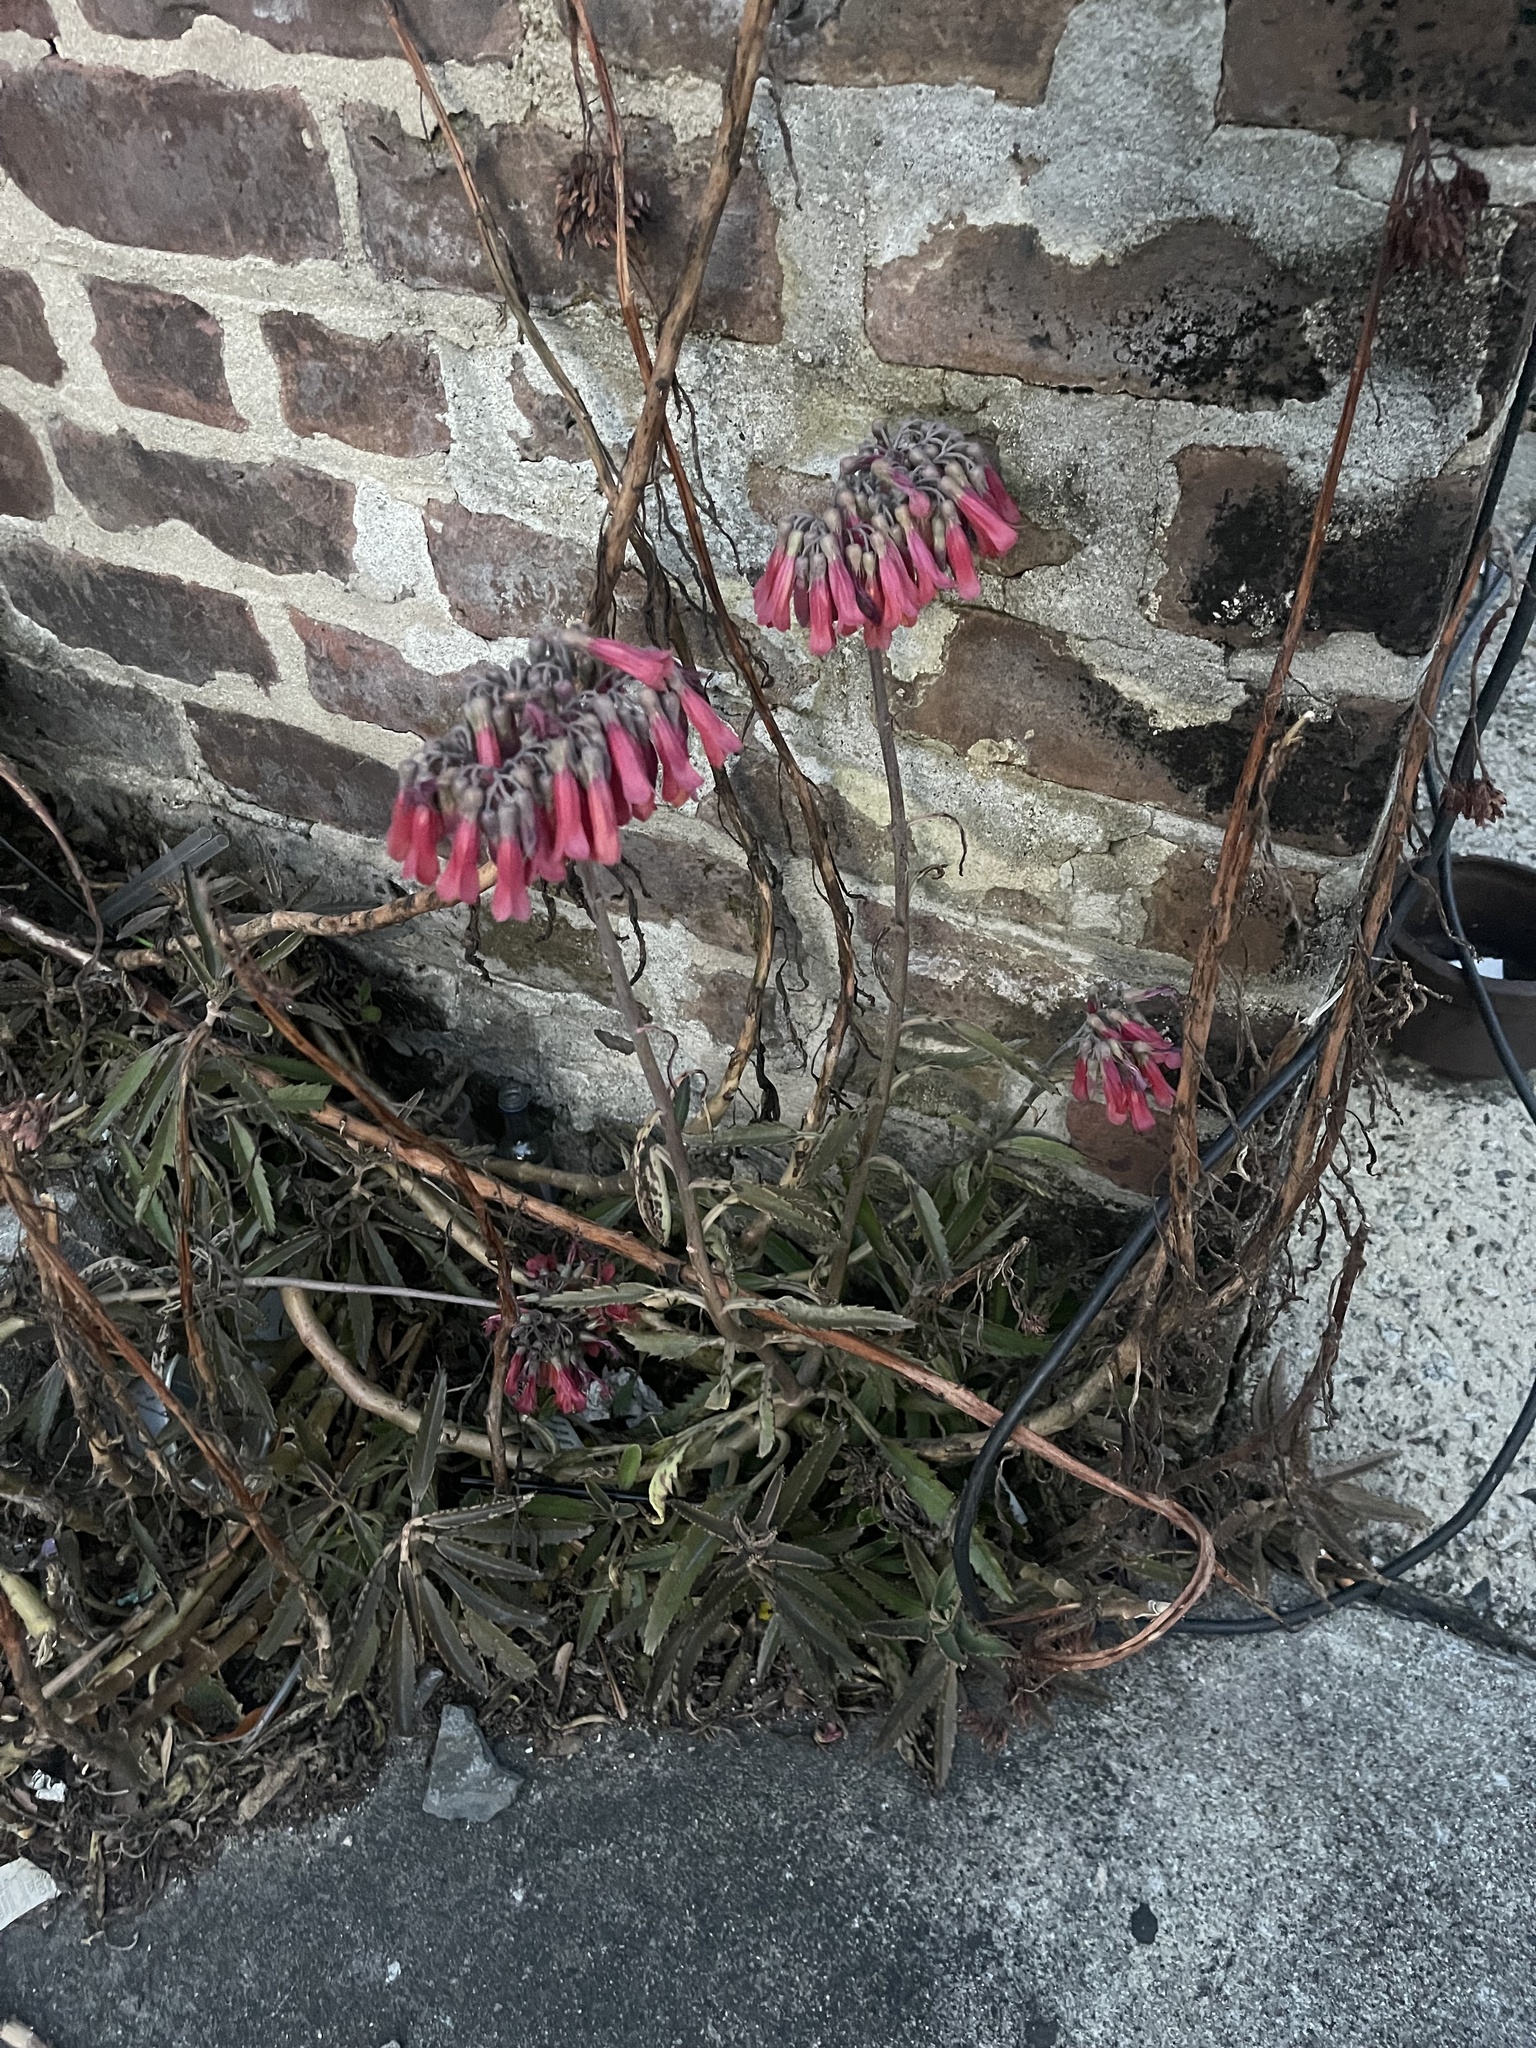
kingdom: Plantae
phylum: Tracheophyta
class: Magnoliopsida
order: Saxifragales
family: Crassulaceae
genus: Kalanchoe
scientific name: Kalanchoe houghtonii
